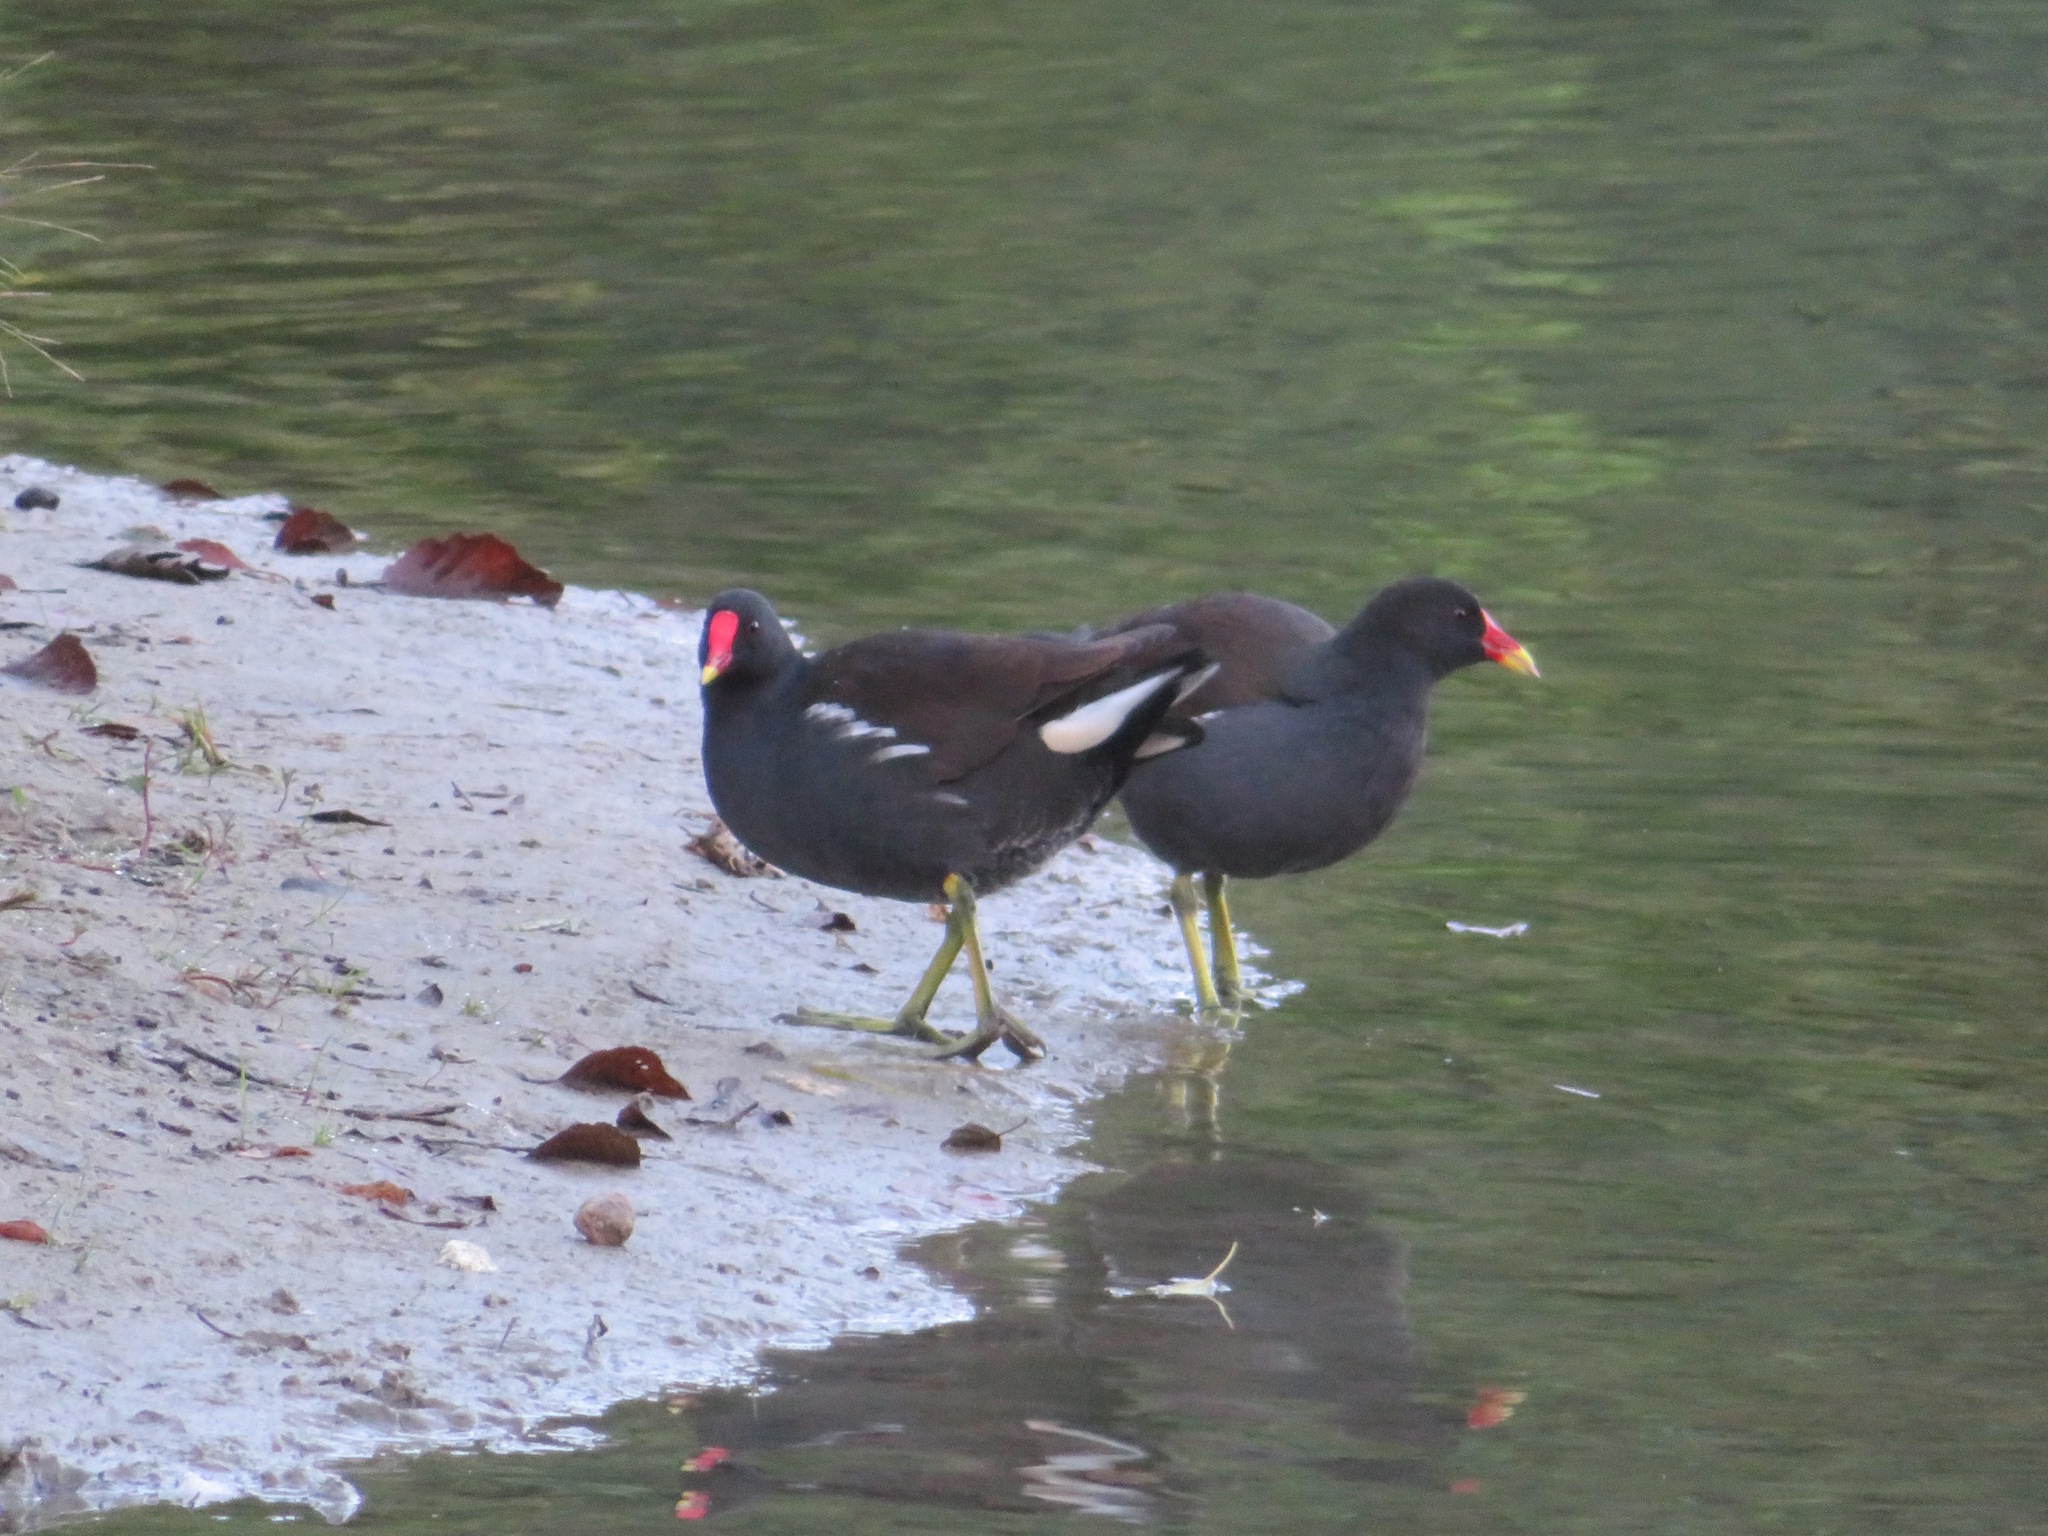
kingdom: Animalia
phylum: Chordata
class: Aves
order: Gruiformes
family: Rallidae
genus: Gallinula
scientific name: Gallinula chloropus
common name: Common moorhen
